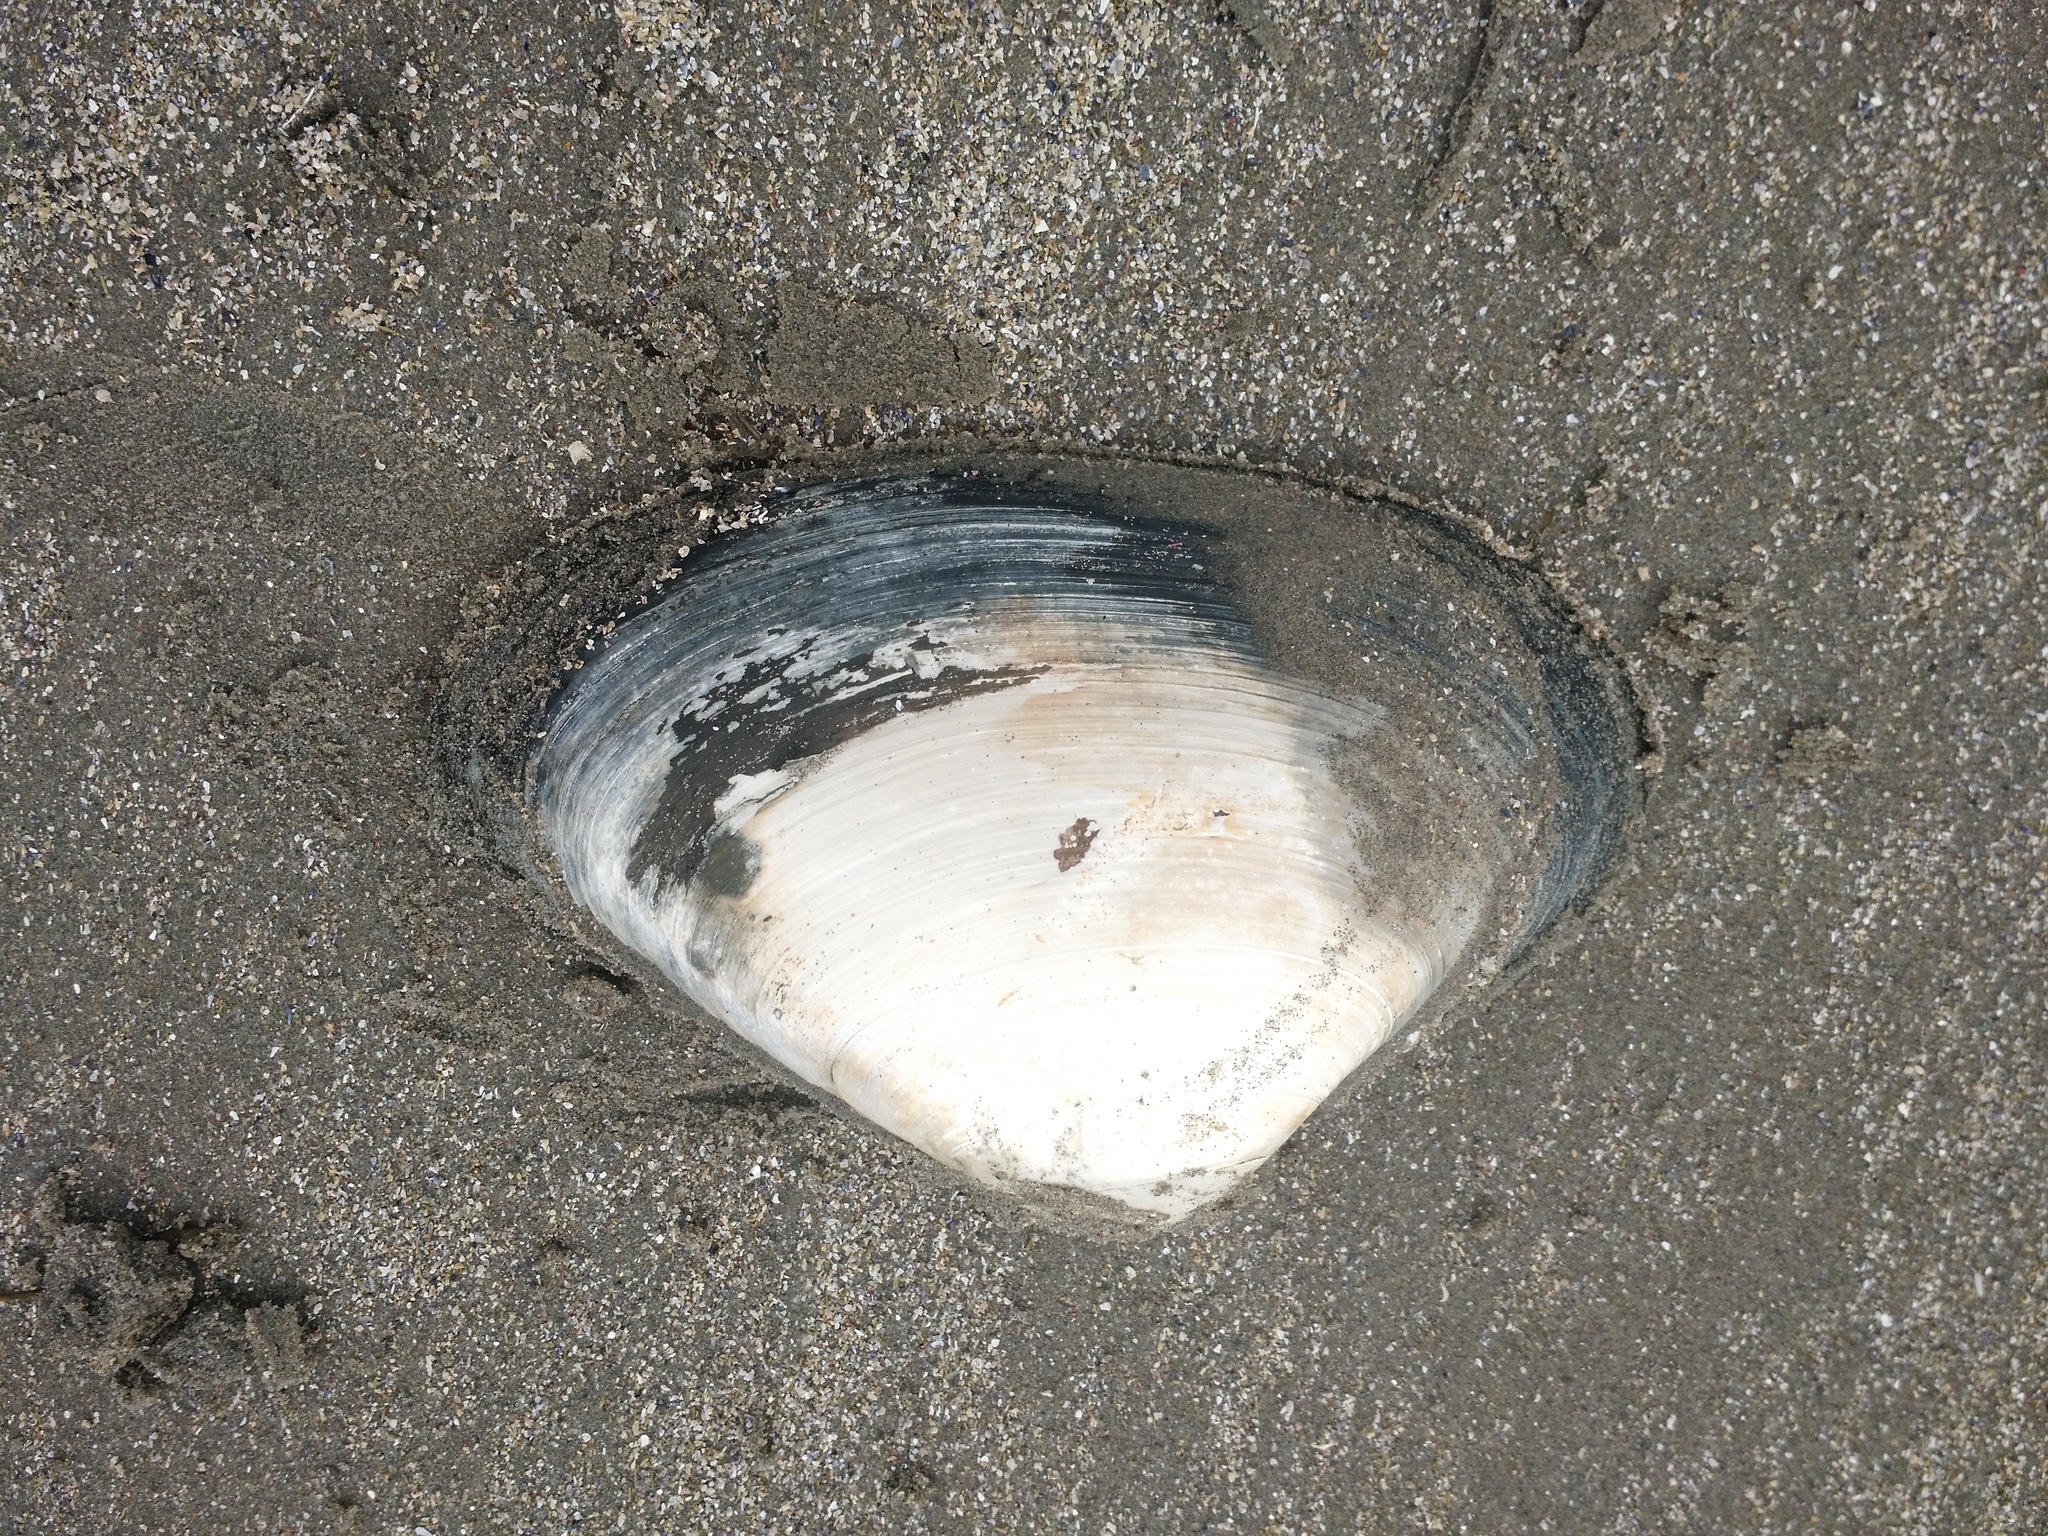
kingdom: Animalia
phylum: Mollusca
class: Bivalvia
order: Venerida
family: Mactridae
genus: Spisula
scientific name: Spisula solidissima
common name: Atlantic surf clam
